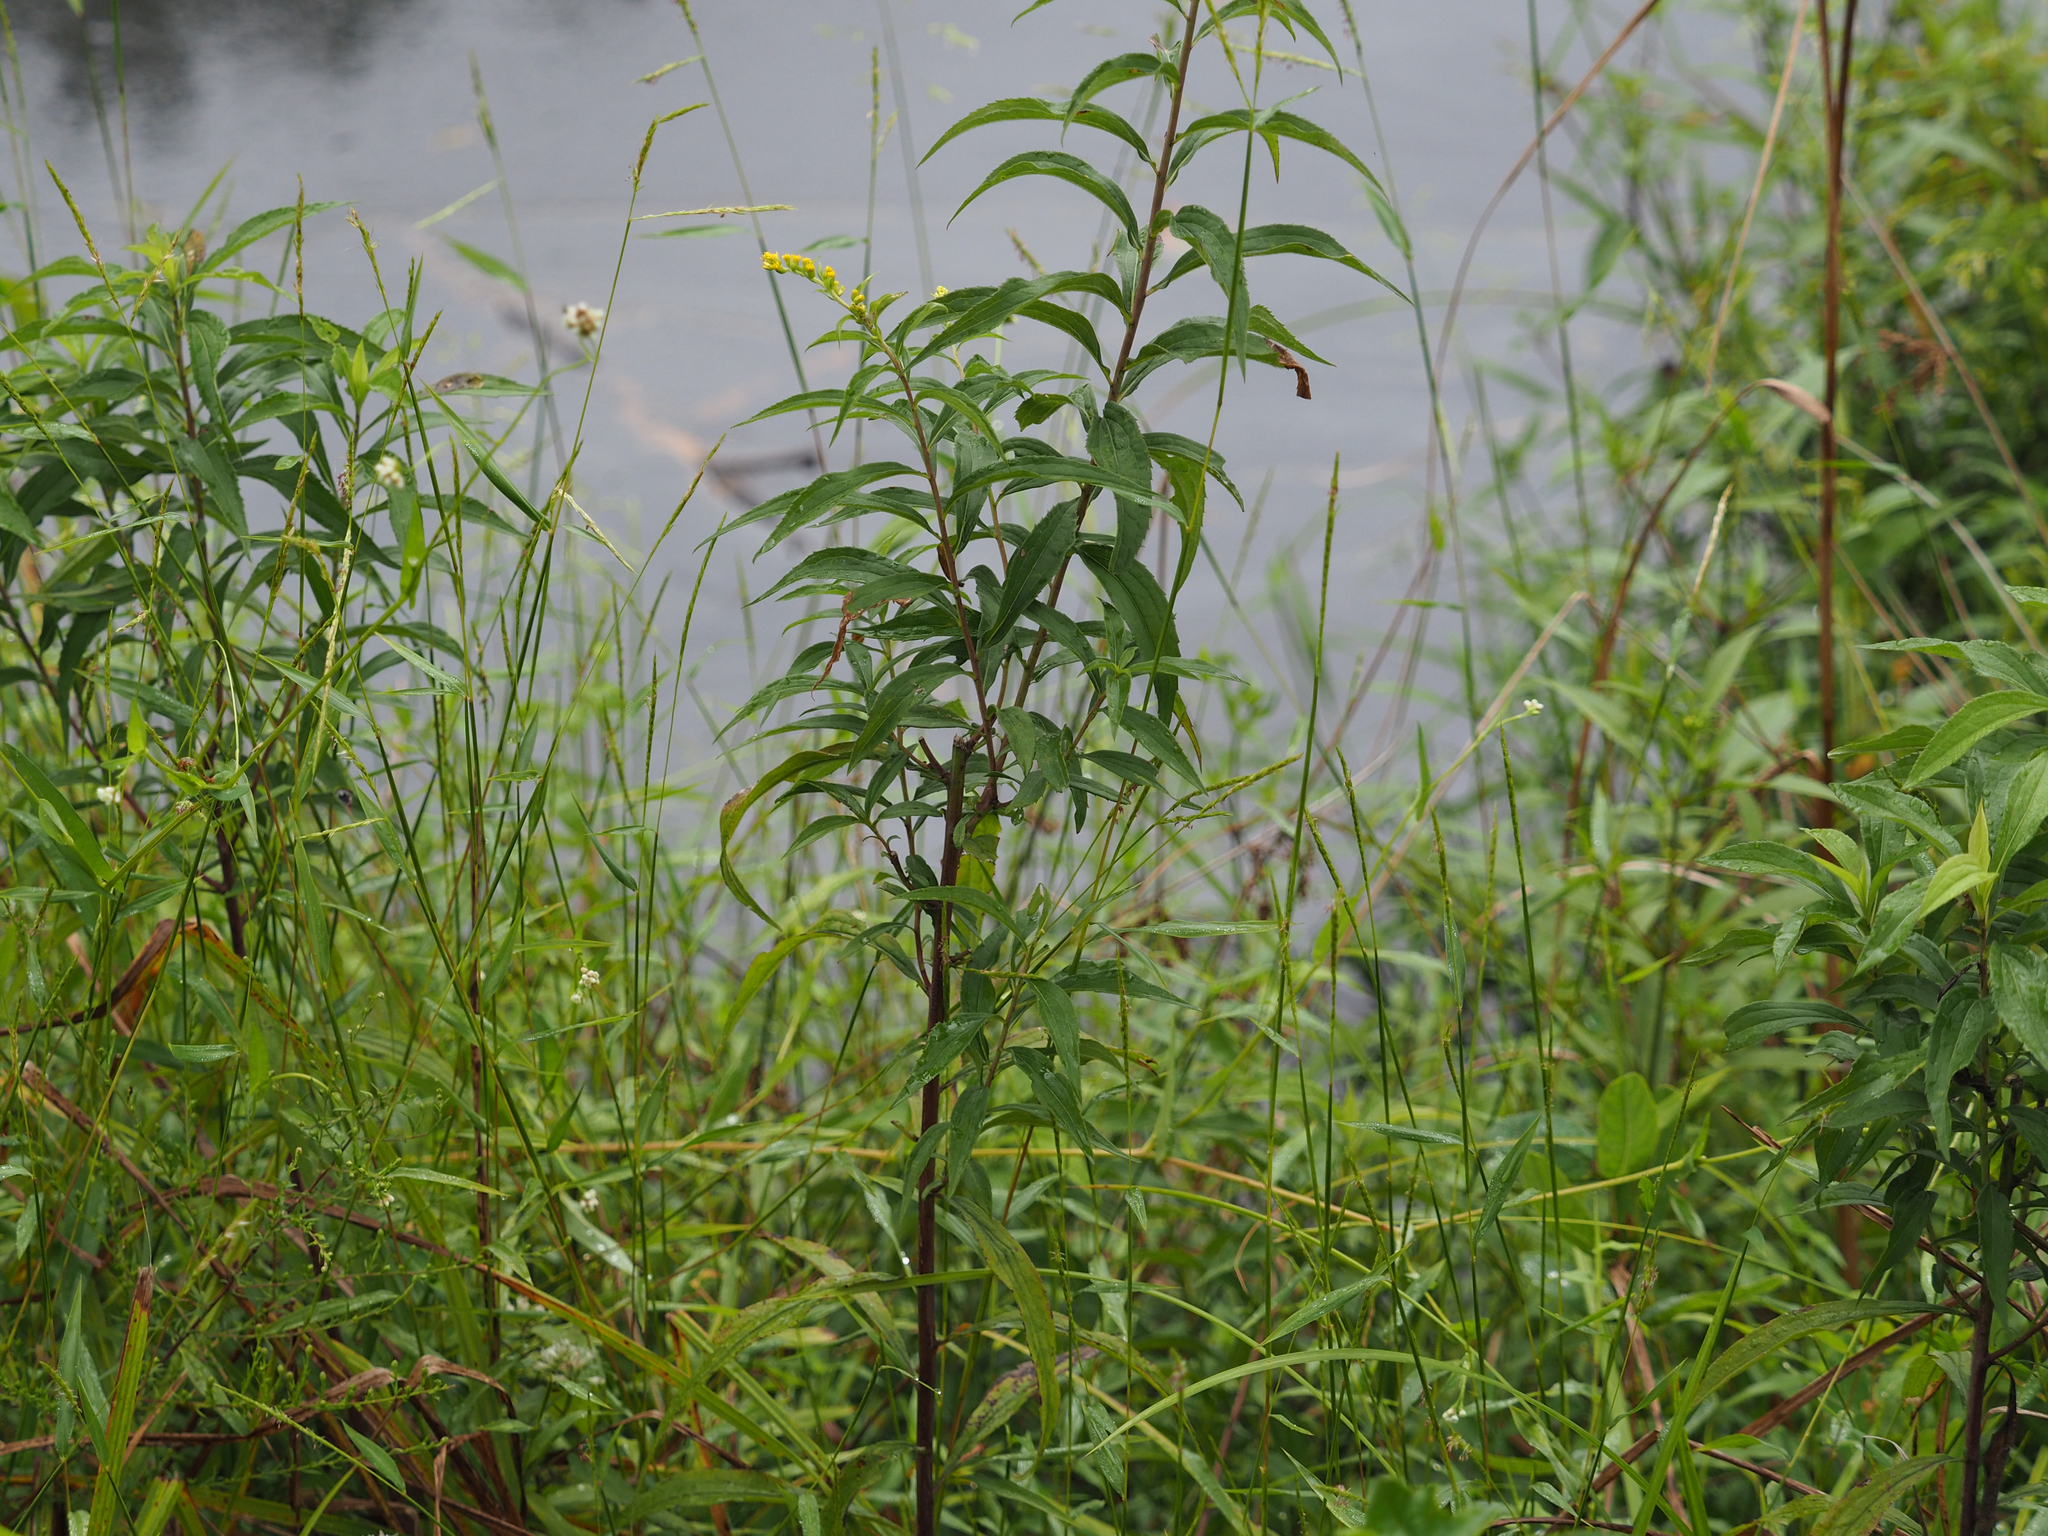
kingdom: Plantae
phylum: Tracheophyta
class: Magnoliopsida
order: Asterales
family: Asteraceae
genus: Solidago
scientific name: Solidago gigantea
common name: Giant goldenrod
